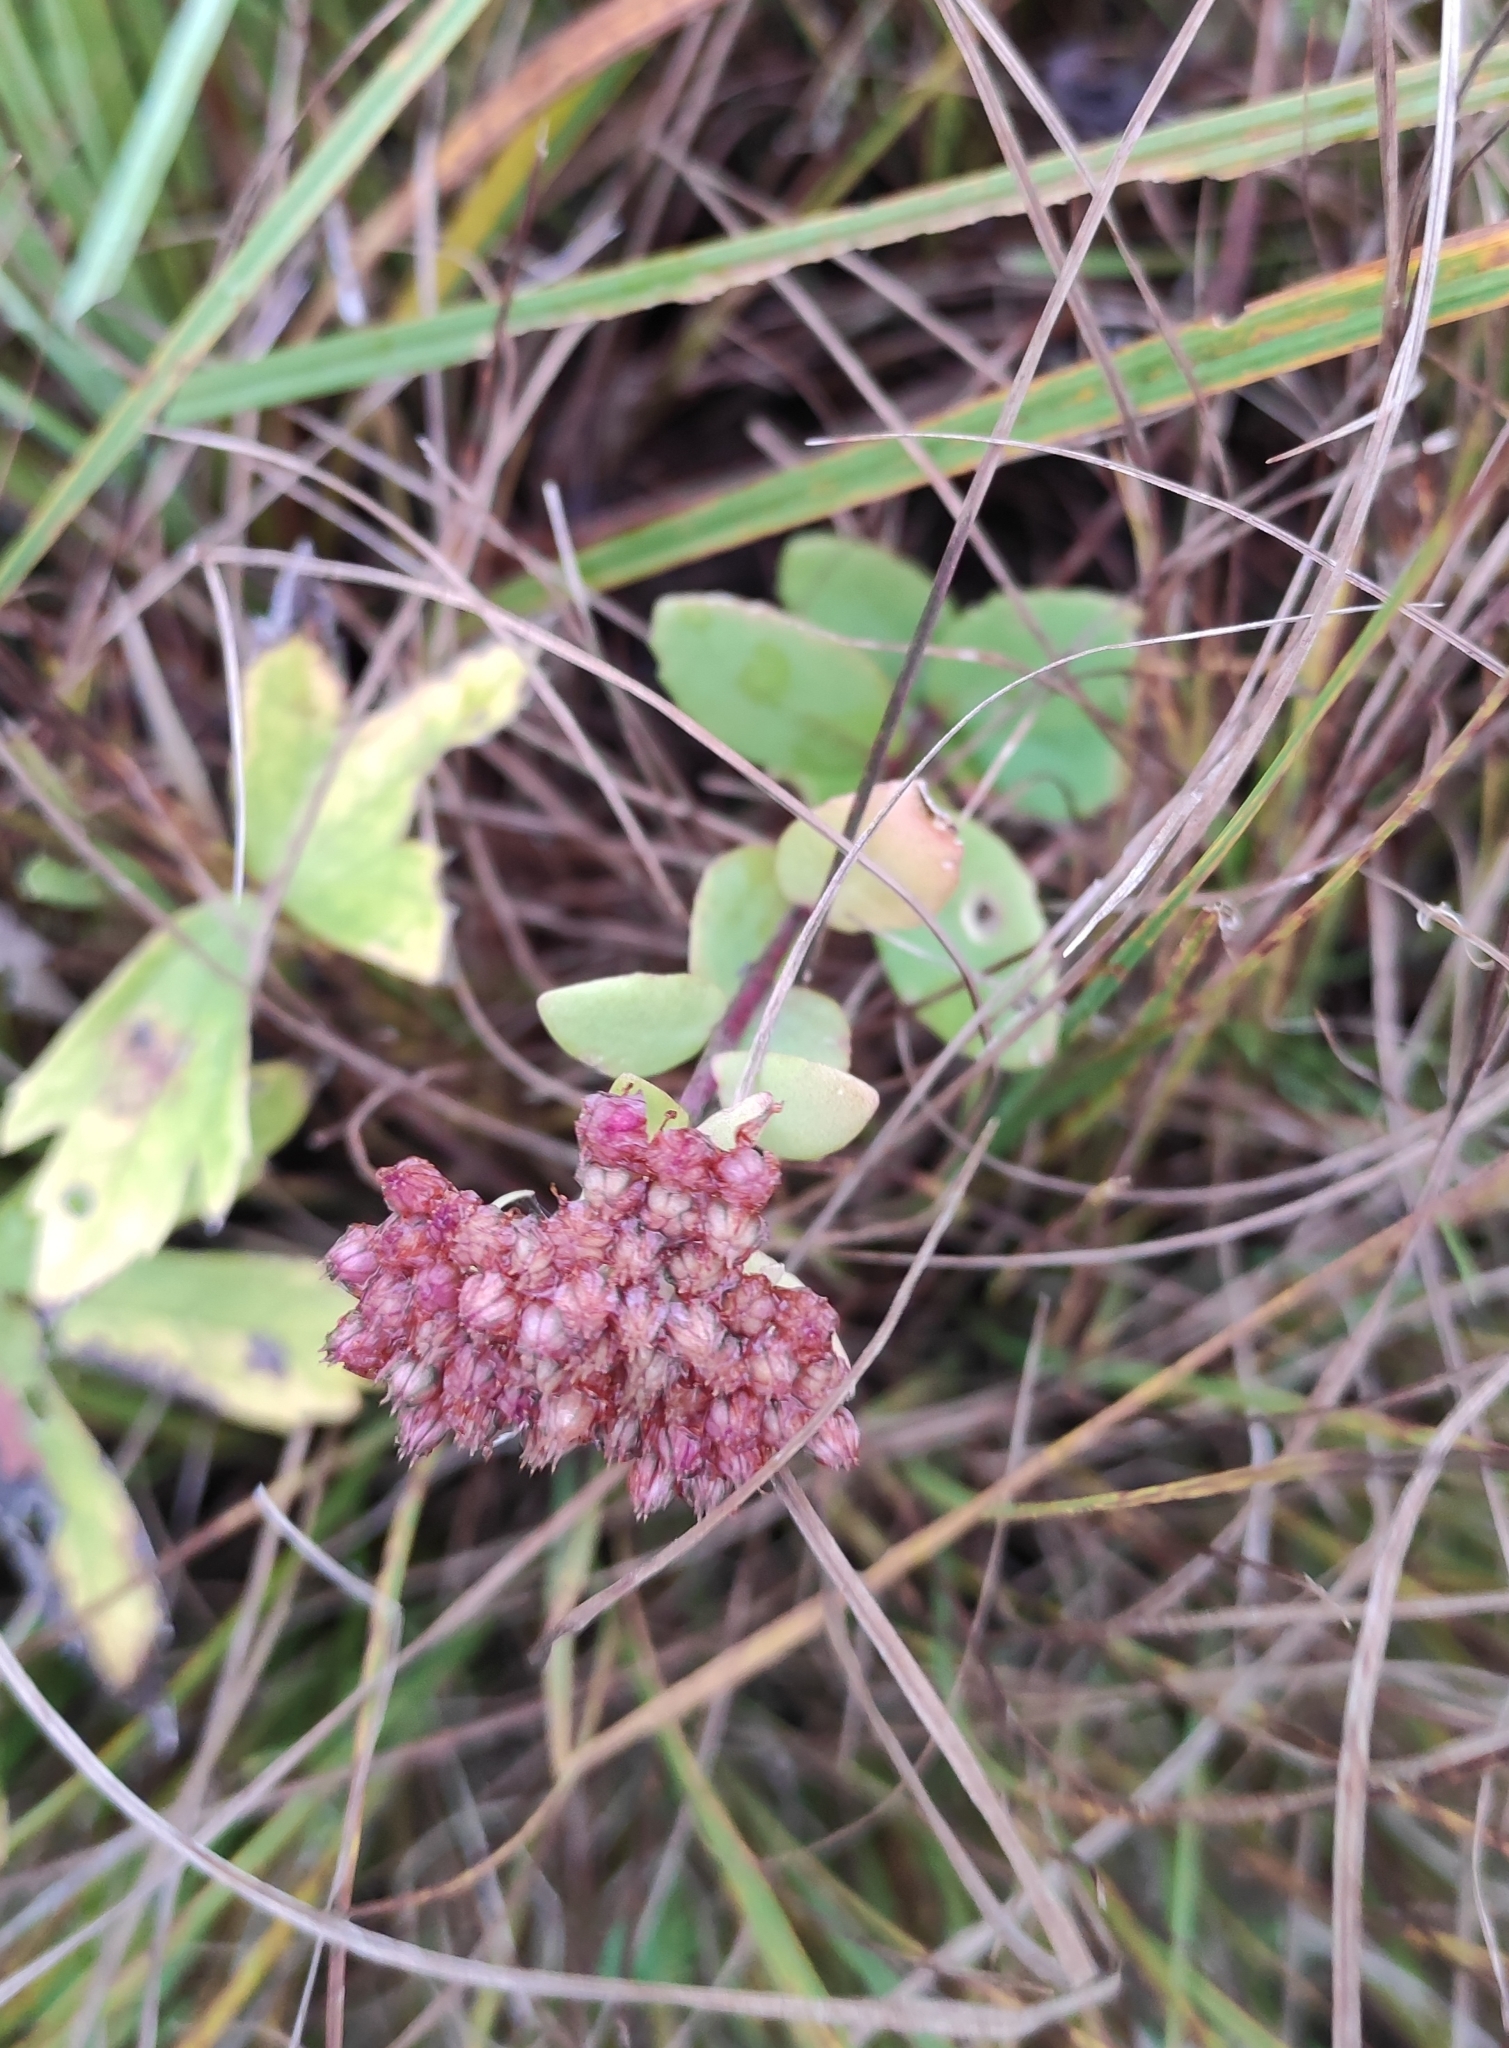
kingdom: Plantae
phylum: Tracheophyta
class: Magnoliopsida
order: Saxifragales
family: Crassulaceae
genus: Hylotelephium
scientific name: Hylotelephium telephium
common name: Live-forever
